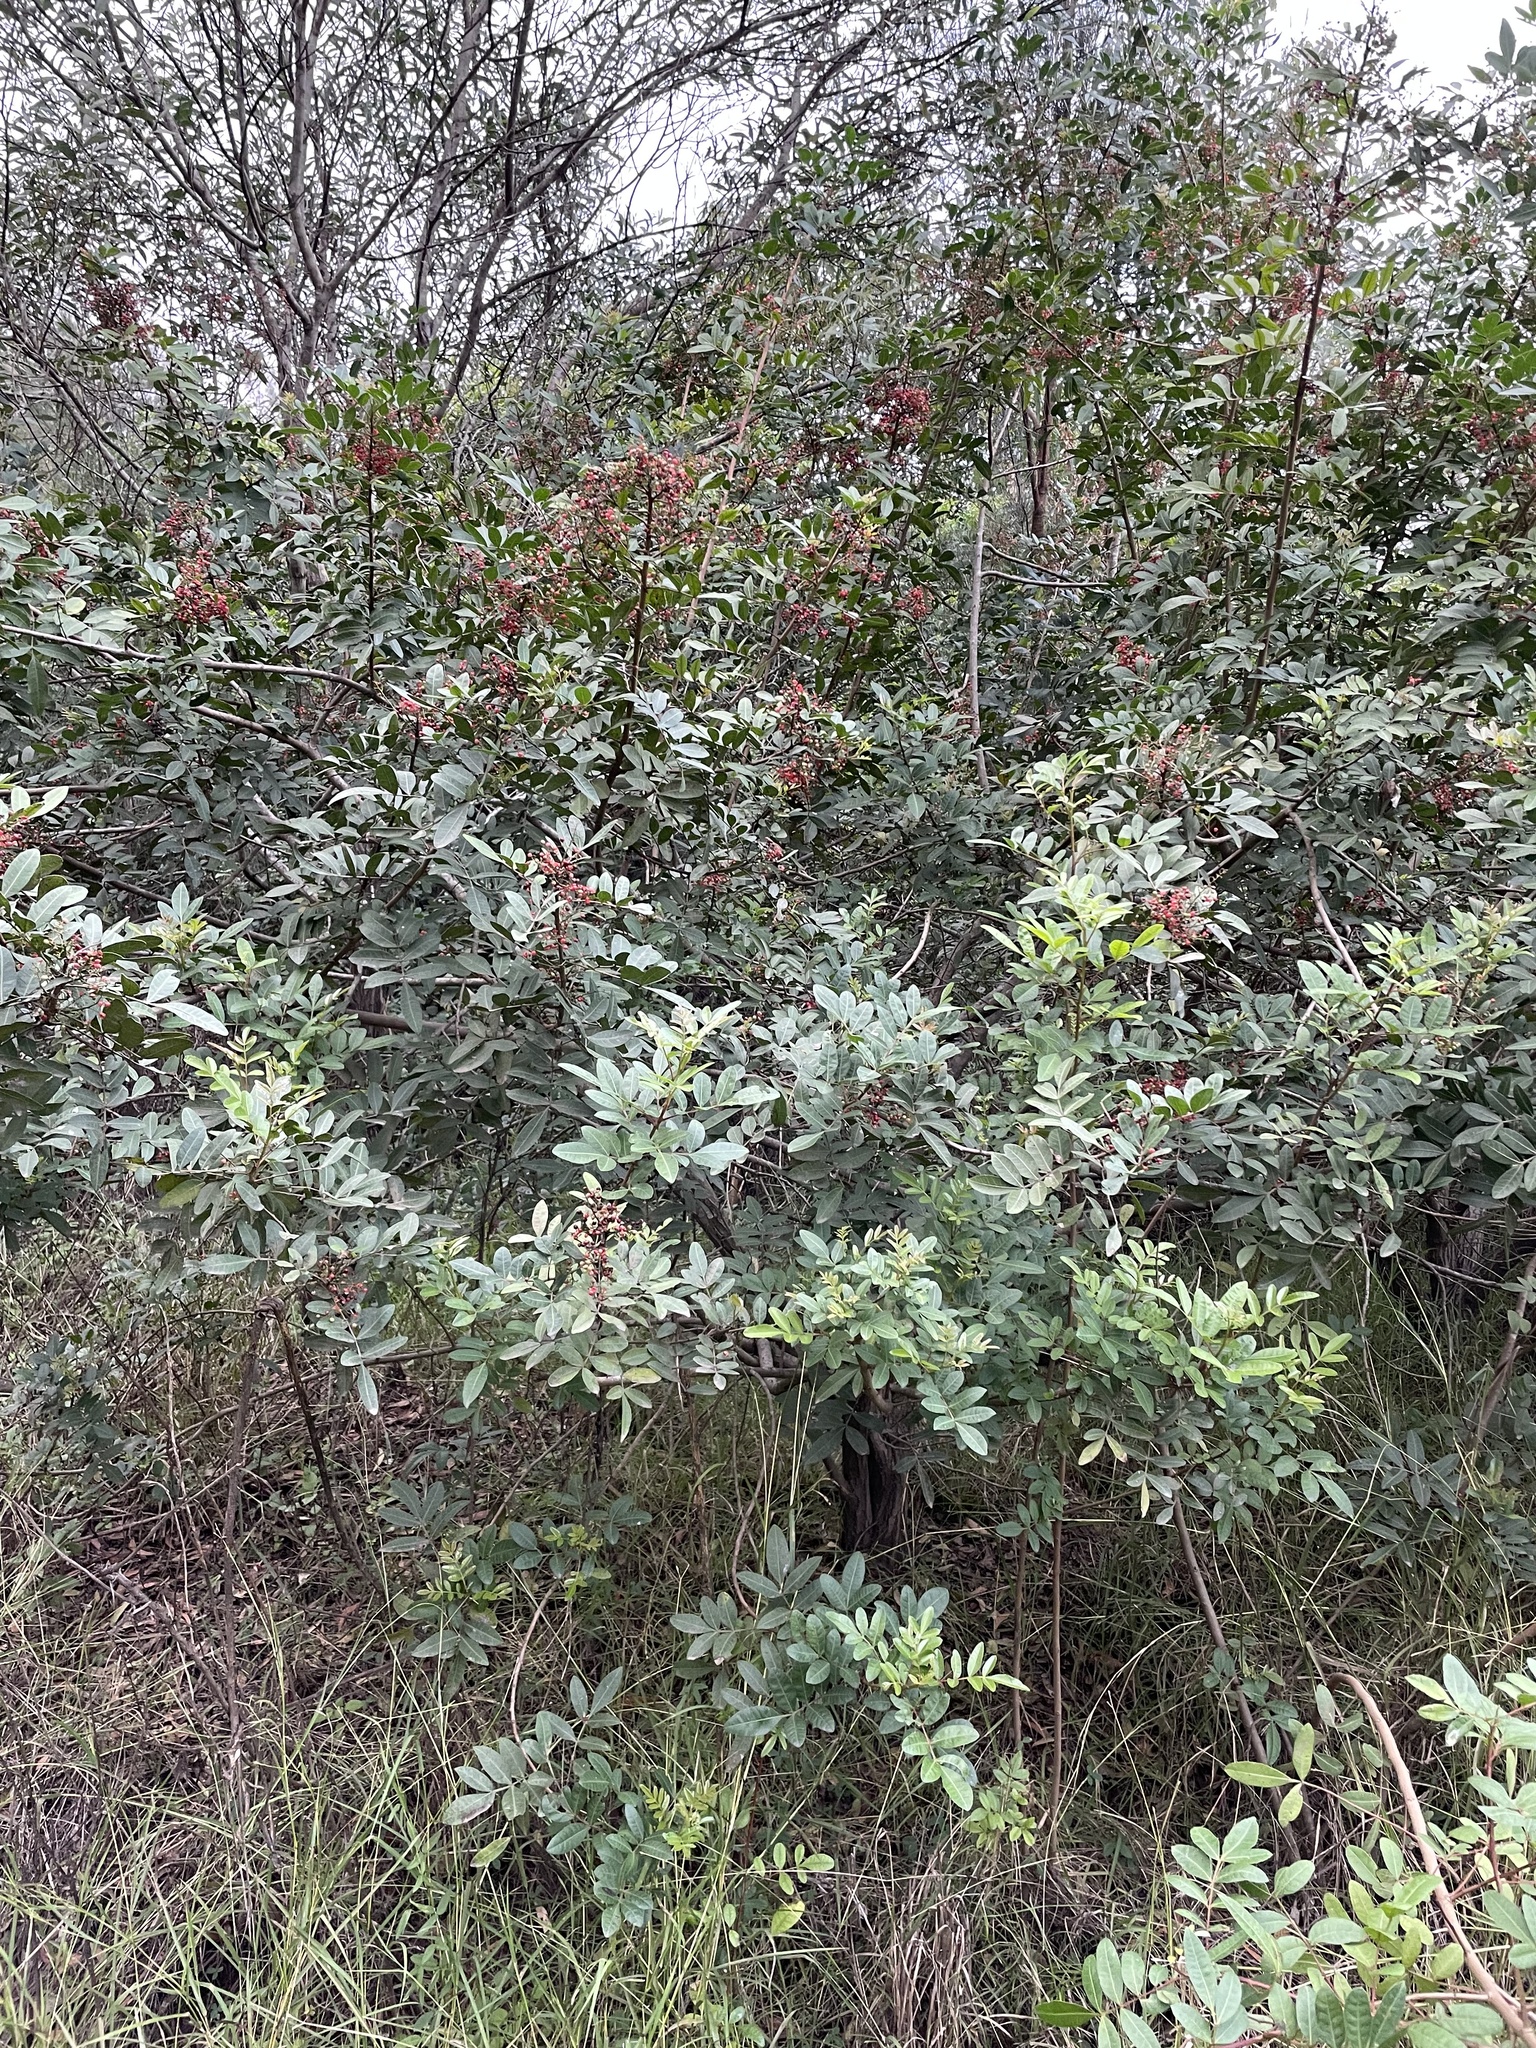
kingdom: Plantae
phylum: Tracheophyta
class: Magnoliopsida
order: Sapindales
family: Anacardiaceae
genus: Schinus
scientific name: Schinus terebinthifolia
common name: Brazilian peppertree
